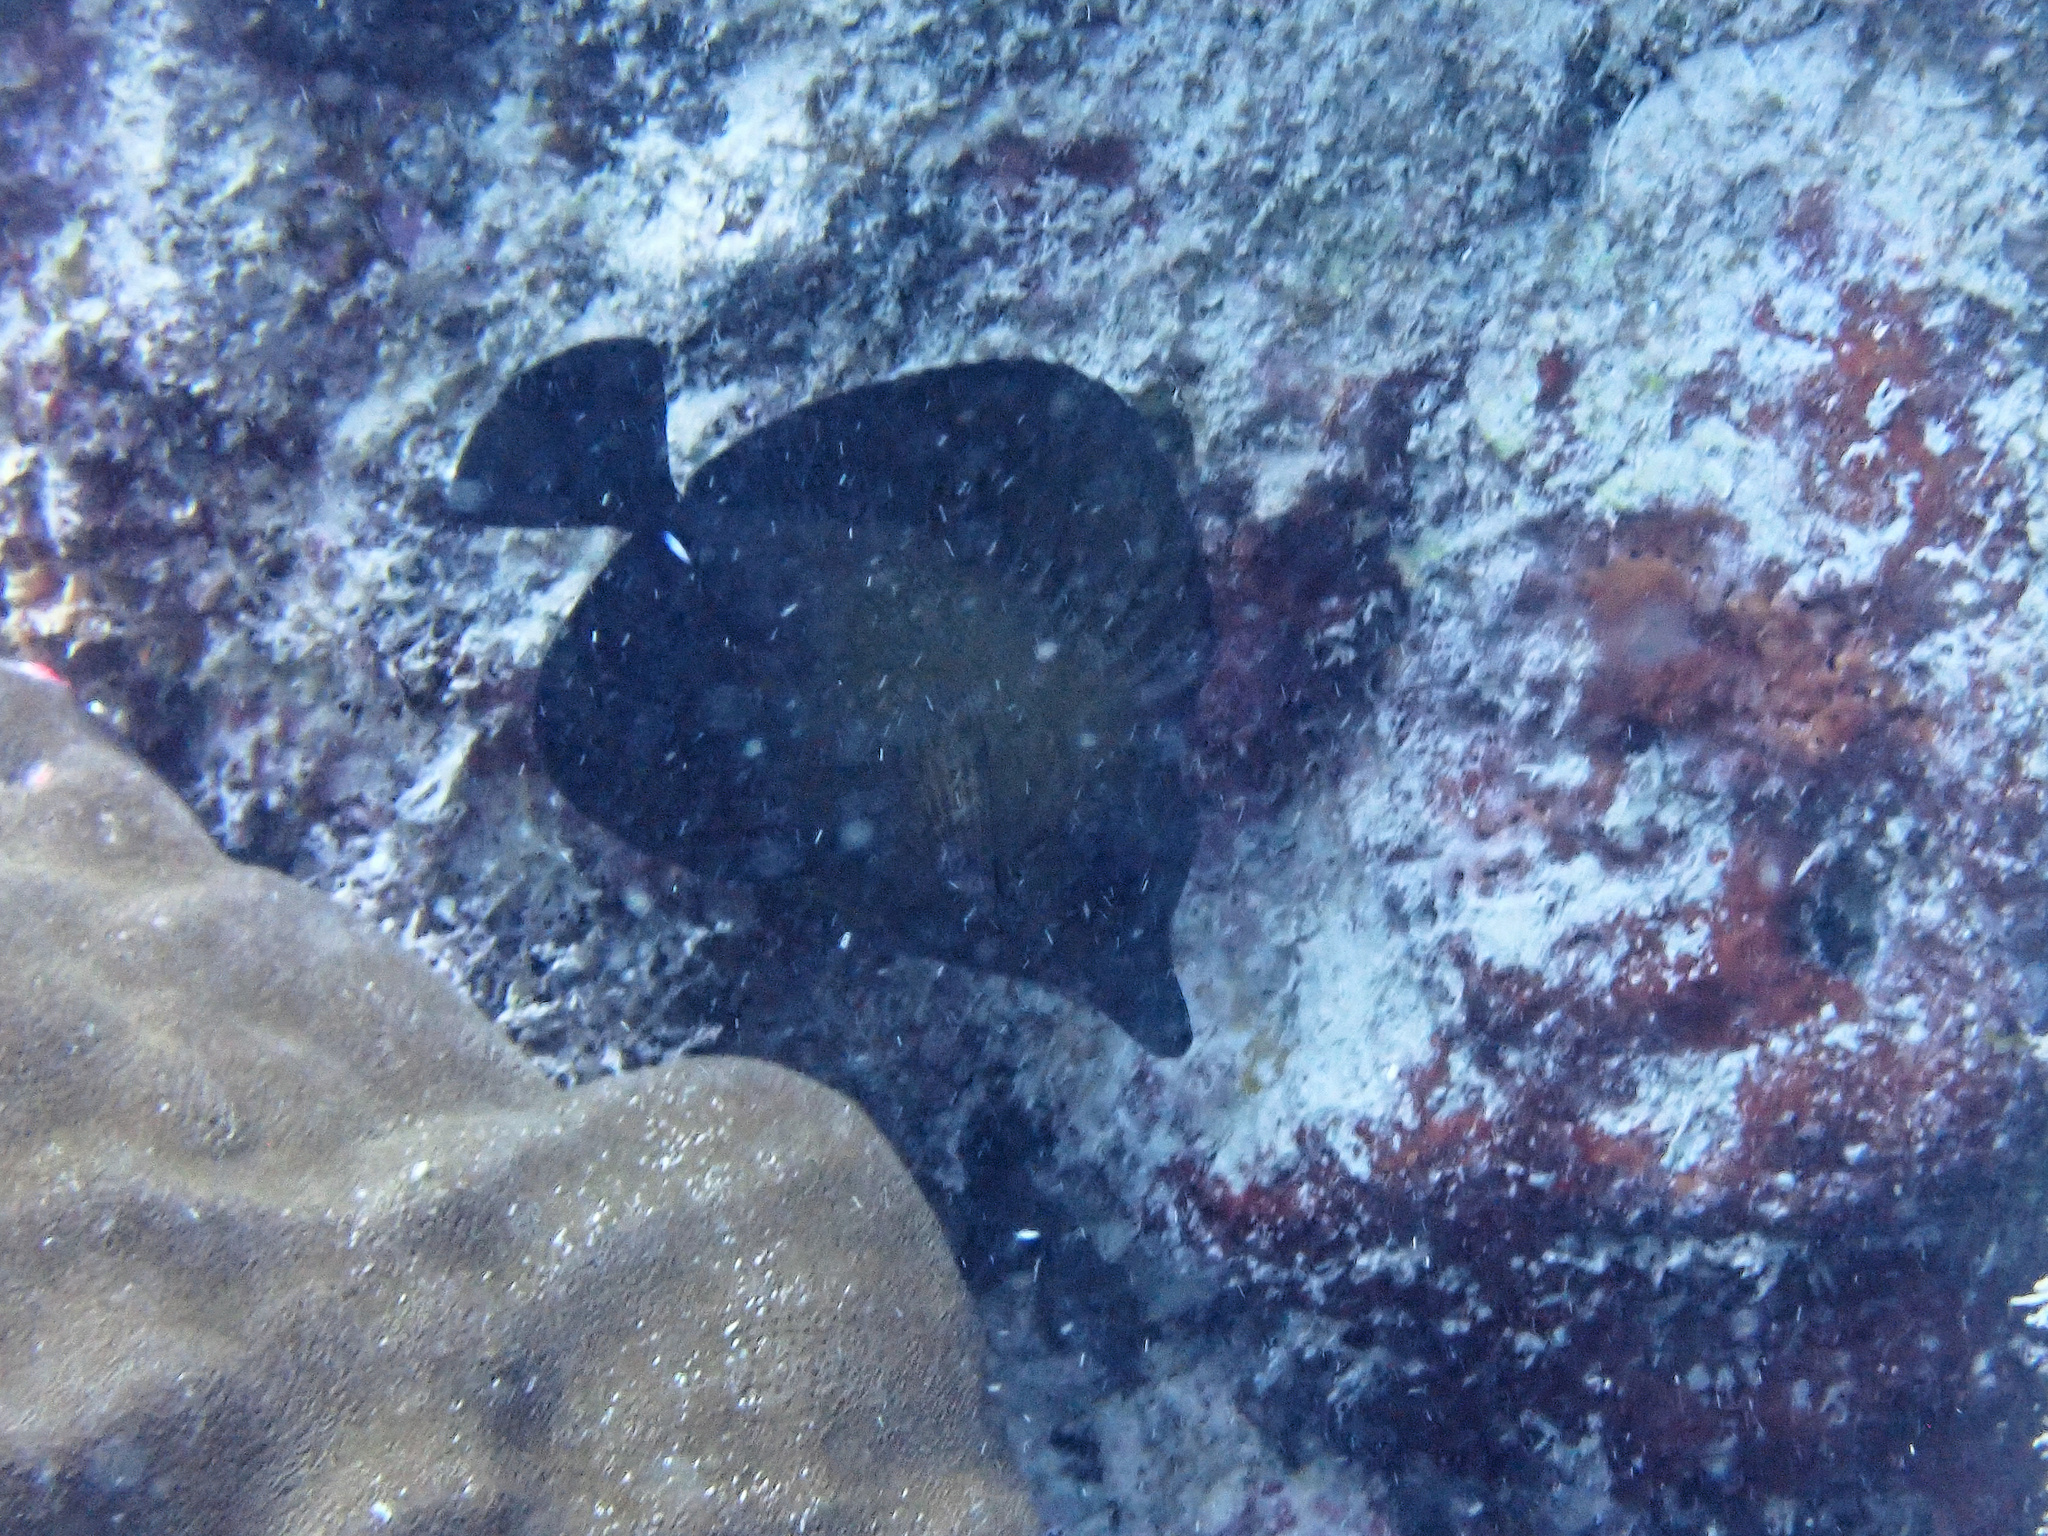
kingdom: Animalia
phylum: Chordata
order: Perciformes
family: Acanthuridae
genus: Zebrasoma
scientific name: Zebrasoma scopas
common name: Twotone tang
